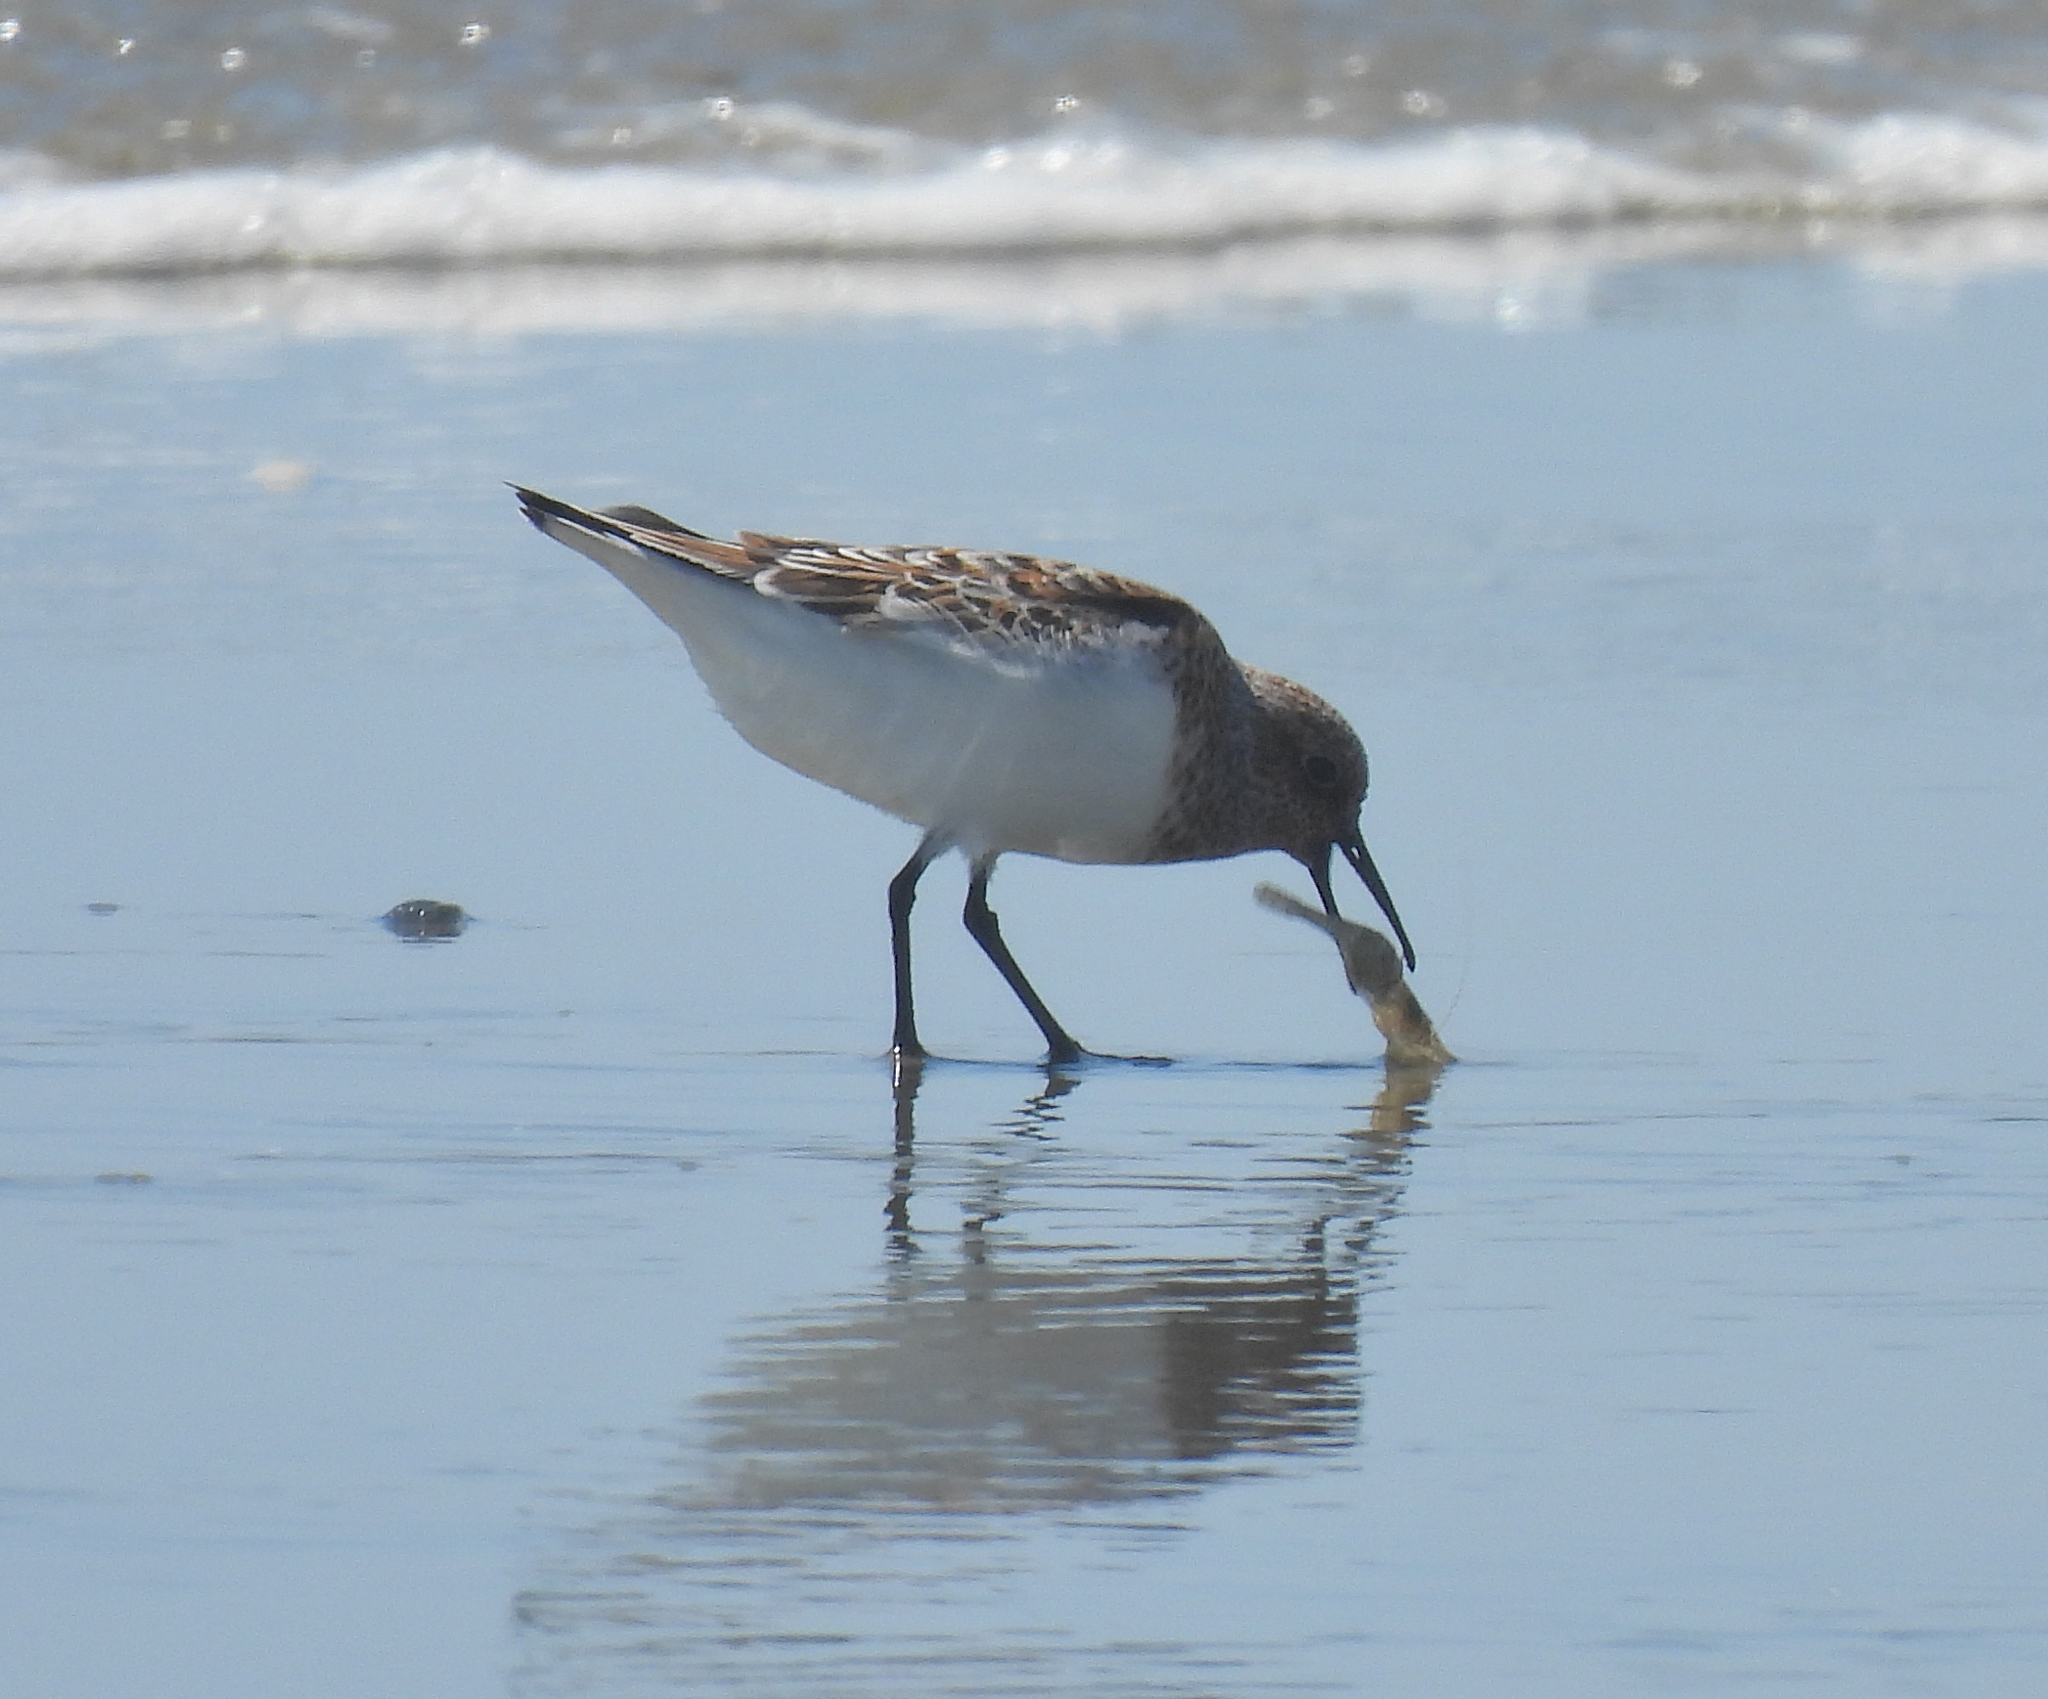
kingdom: Animalia
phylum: Chordata
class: Aves
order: Charadriiformes
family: Scolopacidae
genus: Calidris
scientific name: Calidris alba
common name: Sanderling
